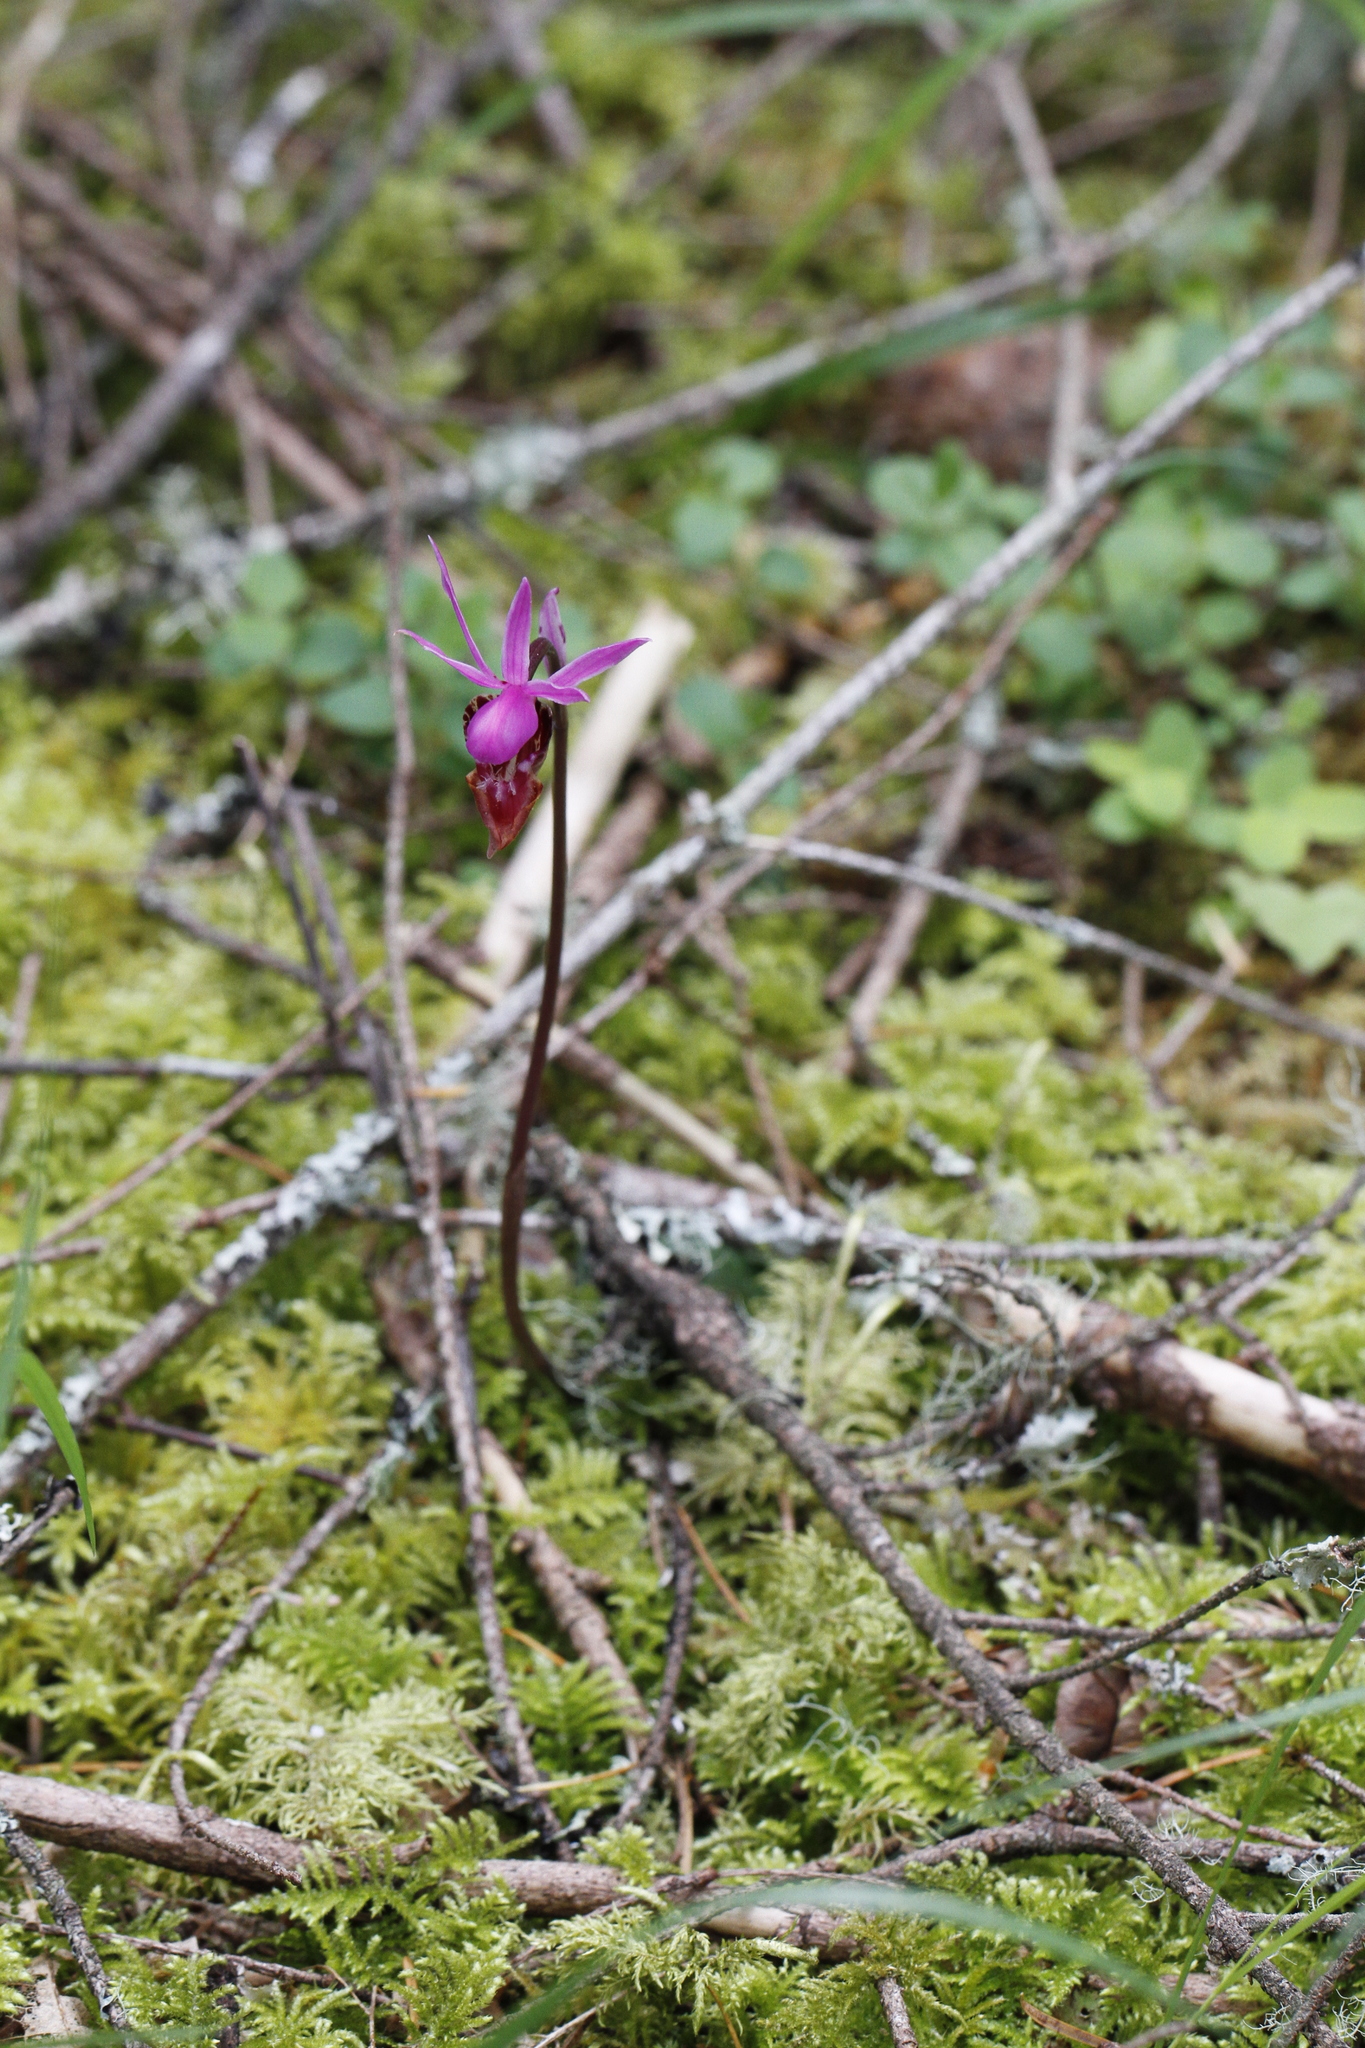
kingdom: Plantae
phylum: Tracheophyta
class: Liliopsida
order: Asparagales
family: Orchidaceae
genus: Calypso
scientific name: Calypso bulbosa
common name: Calypso
